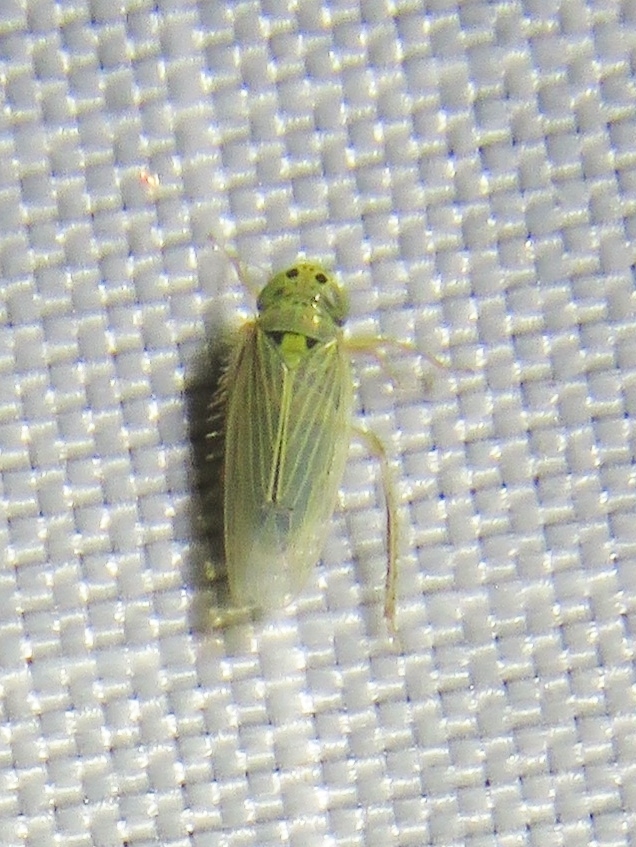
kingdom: Animalia
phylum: Arthropoda
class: Insecta
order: Hemiptera
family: Cicadellidae
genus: Graminella
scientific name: Graminella cognita
